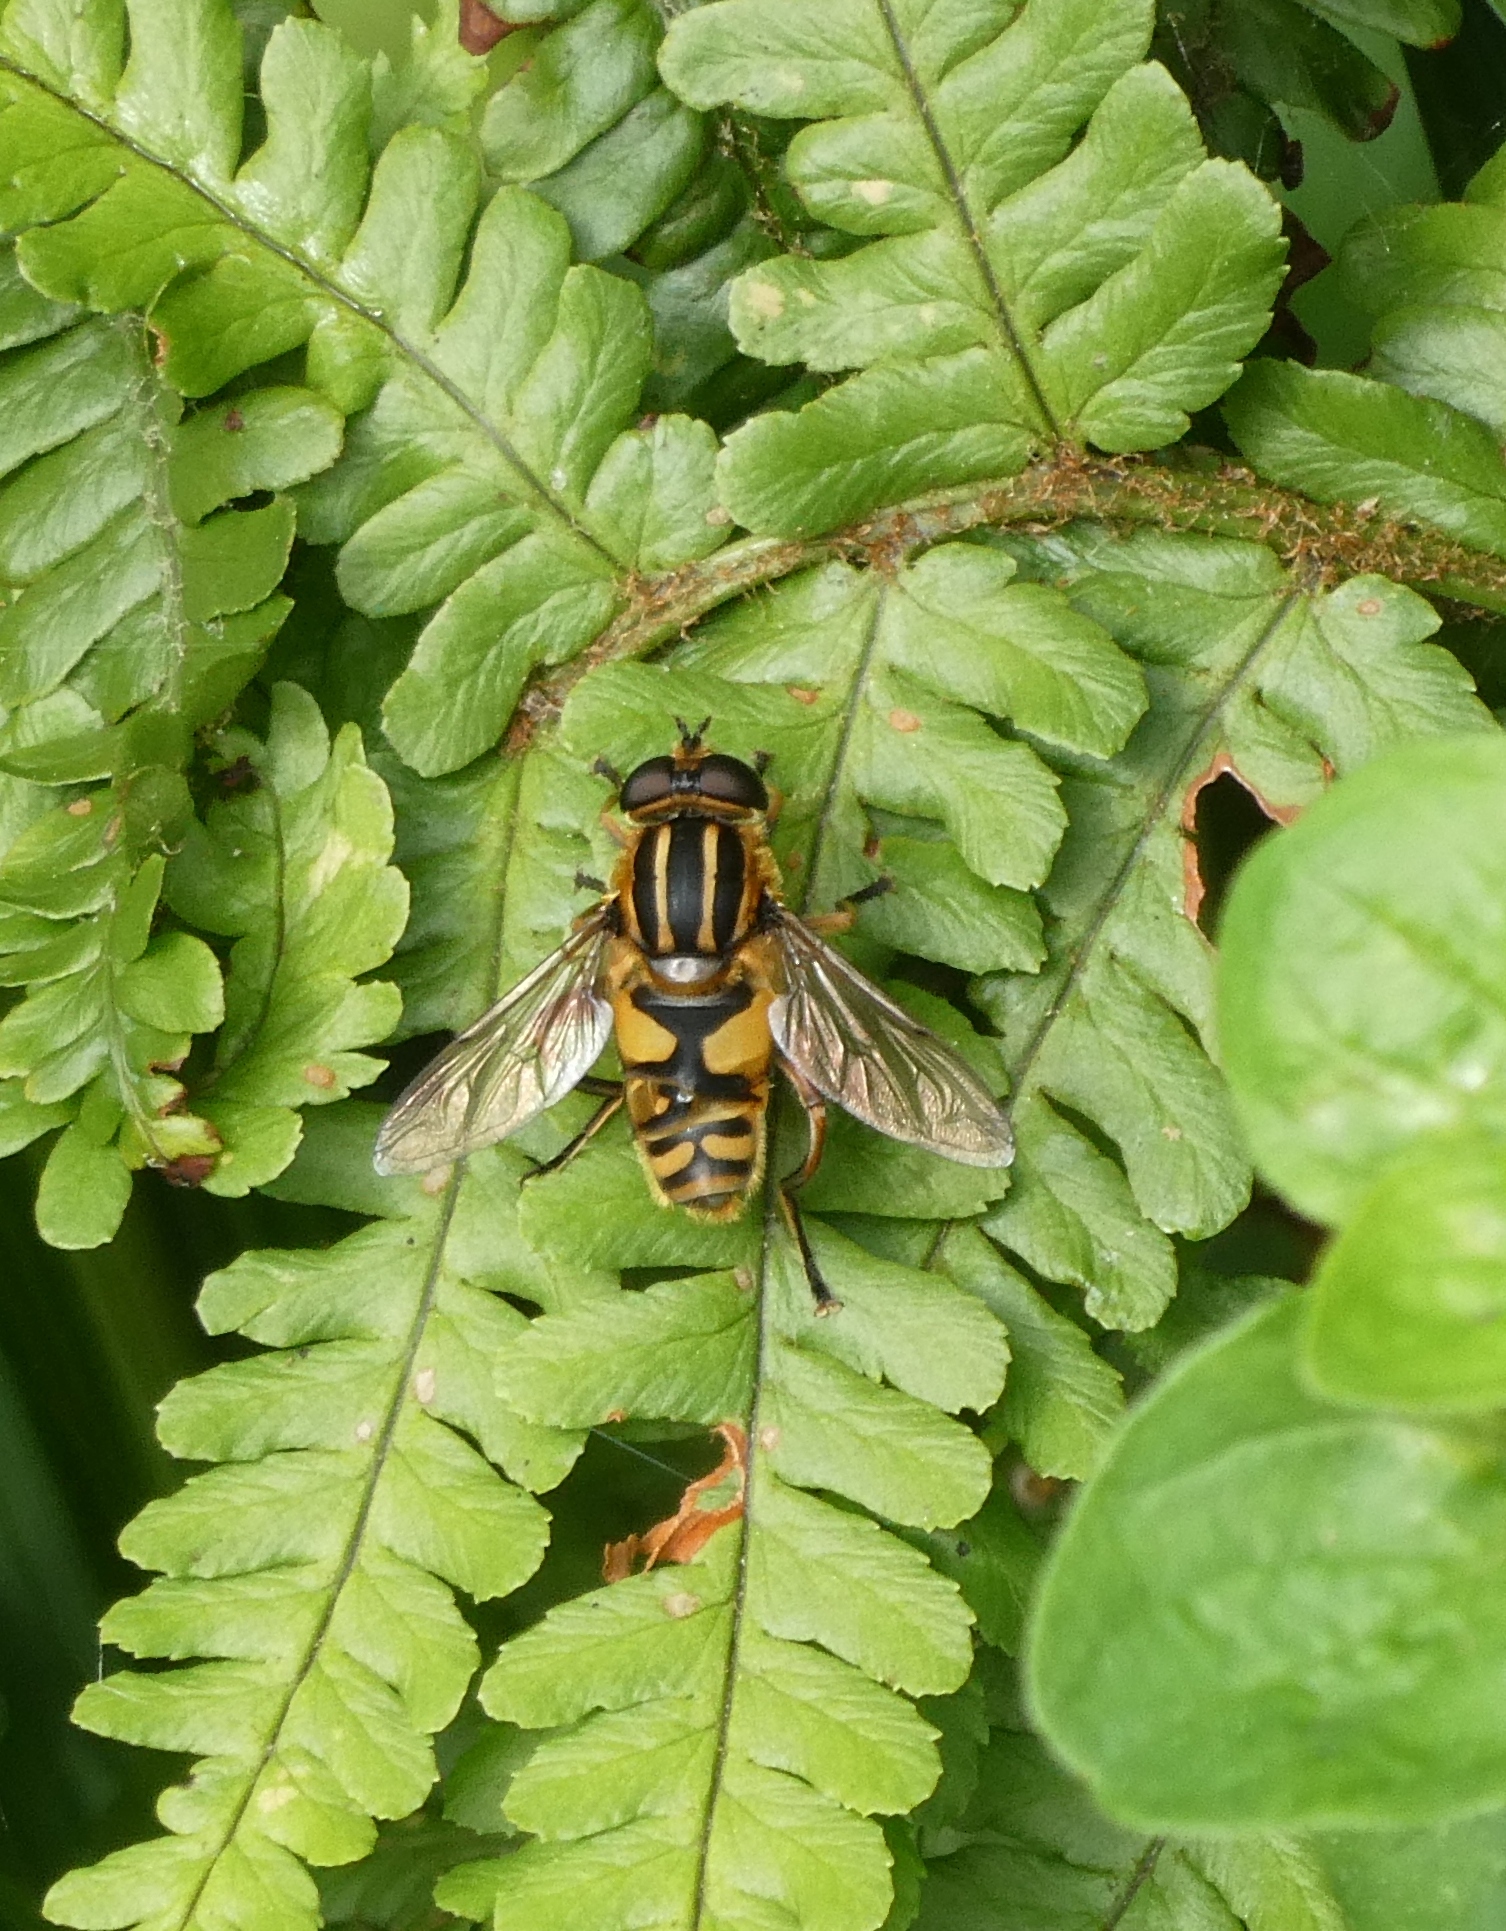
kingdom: Animalia
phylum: Arthropoda
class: Insecta
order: Diptera
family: Syrphidae
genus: Helophilus
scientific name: Helophilus pendulus
